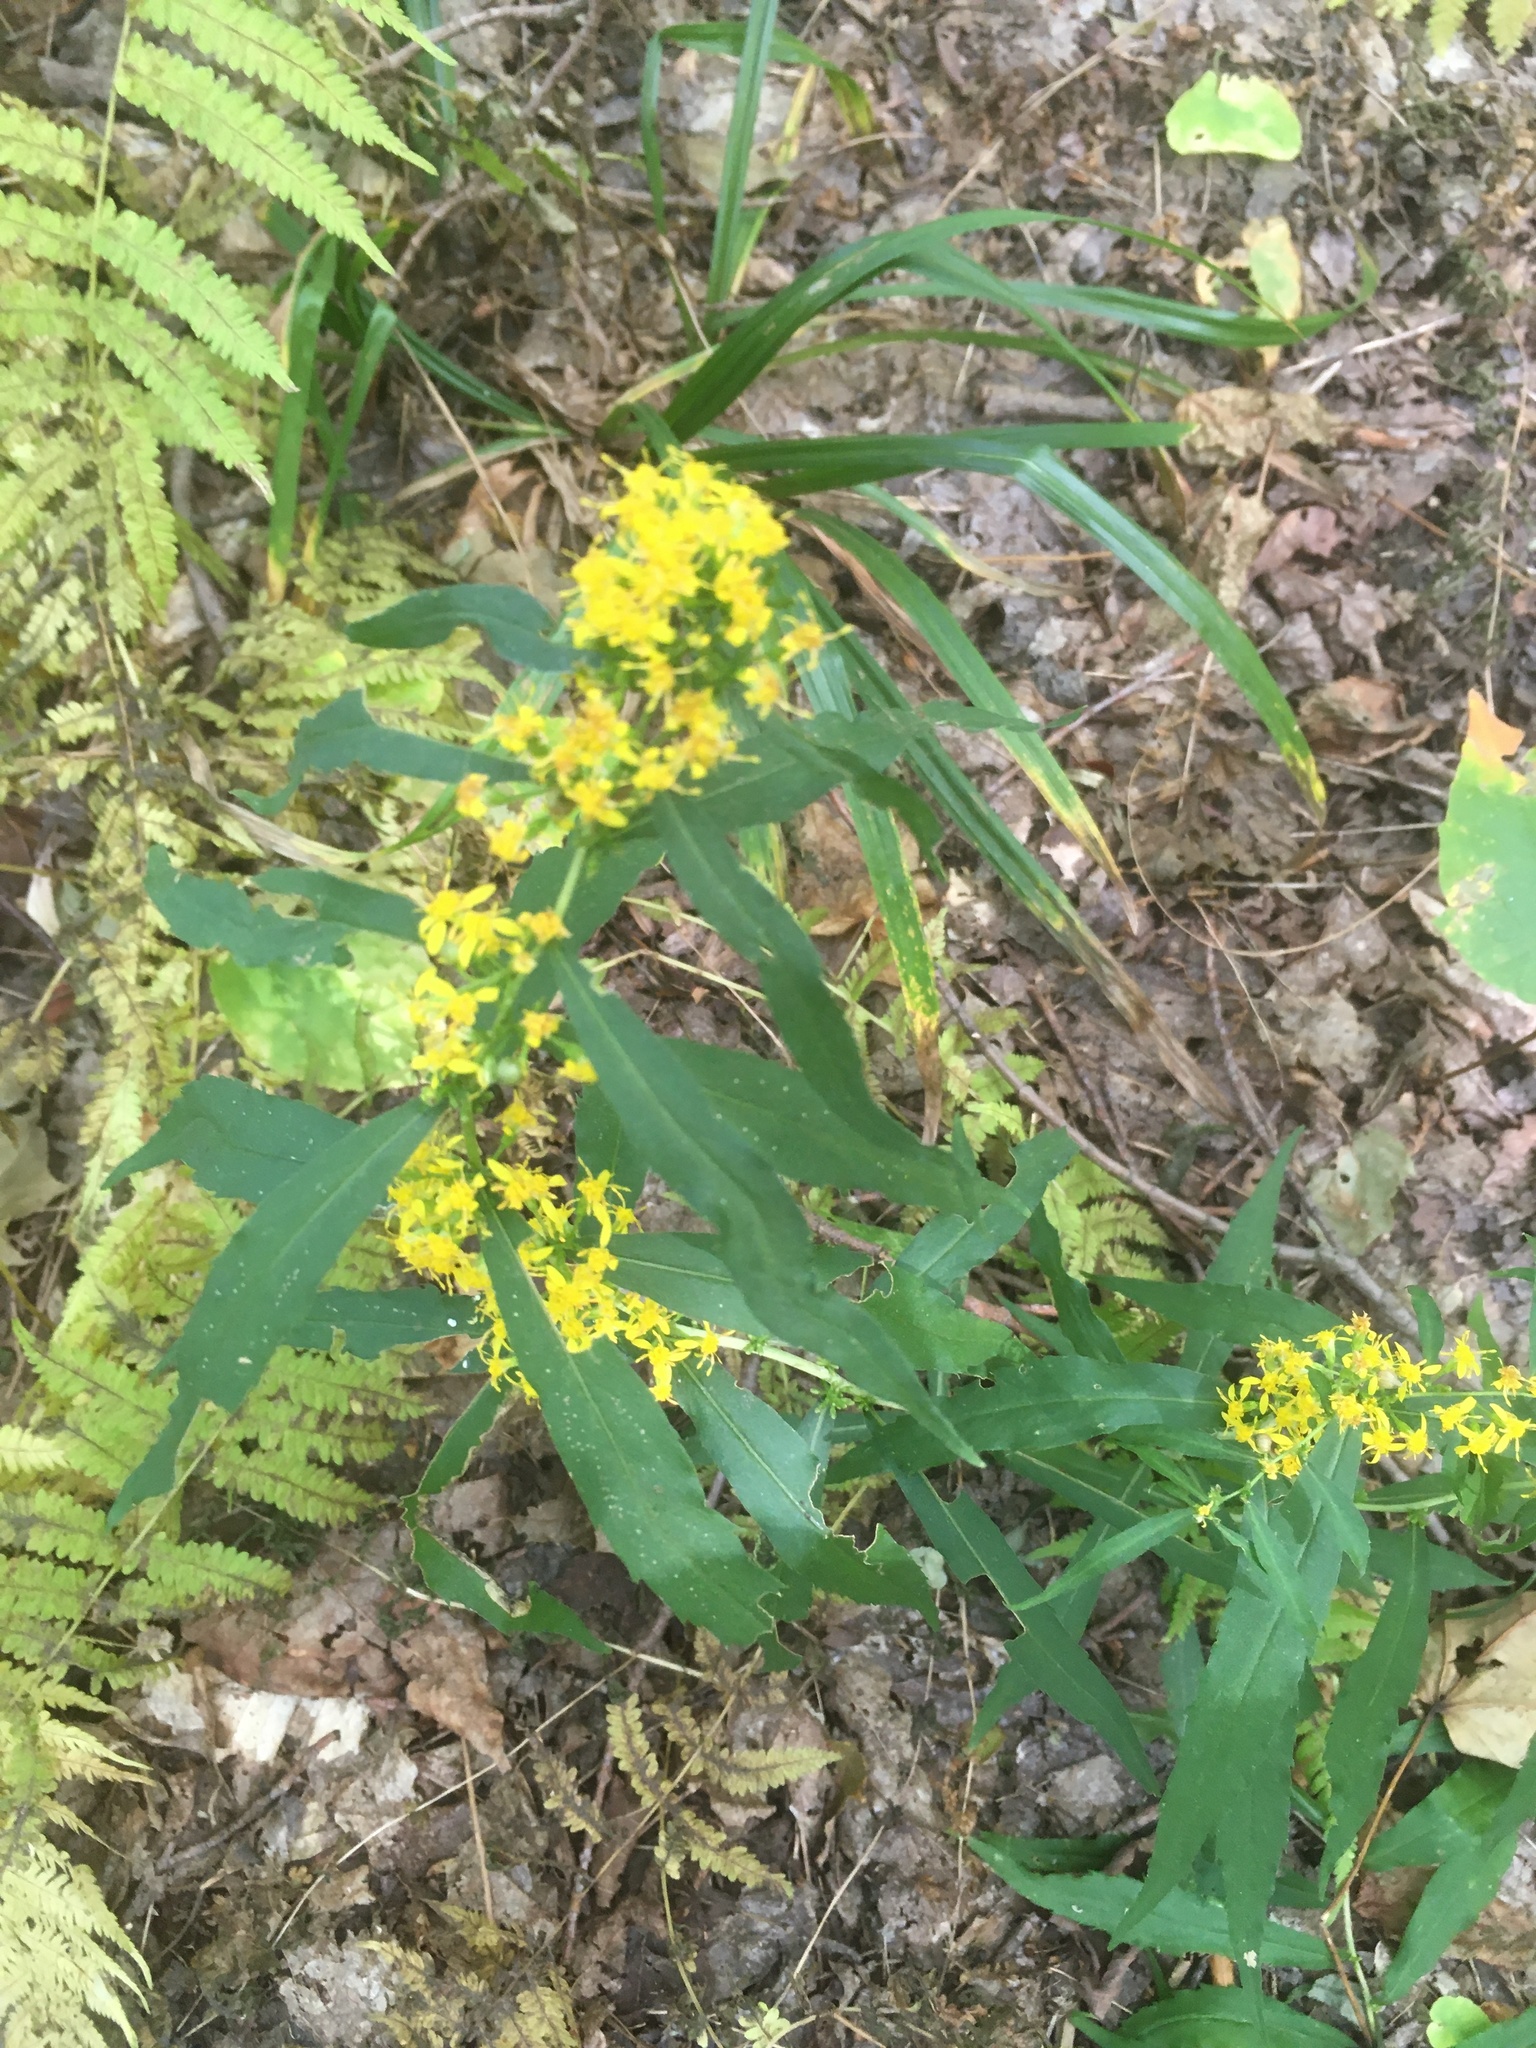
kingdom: Plantae
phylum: Tracheophyta
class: Magnoliopsida
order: Asterales
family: Asteraceae
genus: Solidago
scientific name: Solidago caesia
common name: Woodland goldenrod
